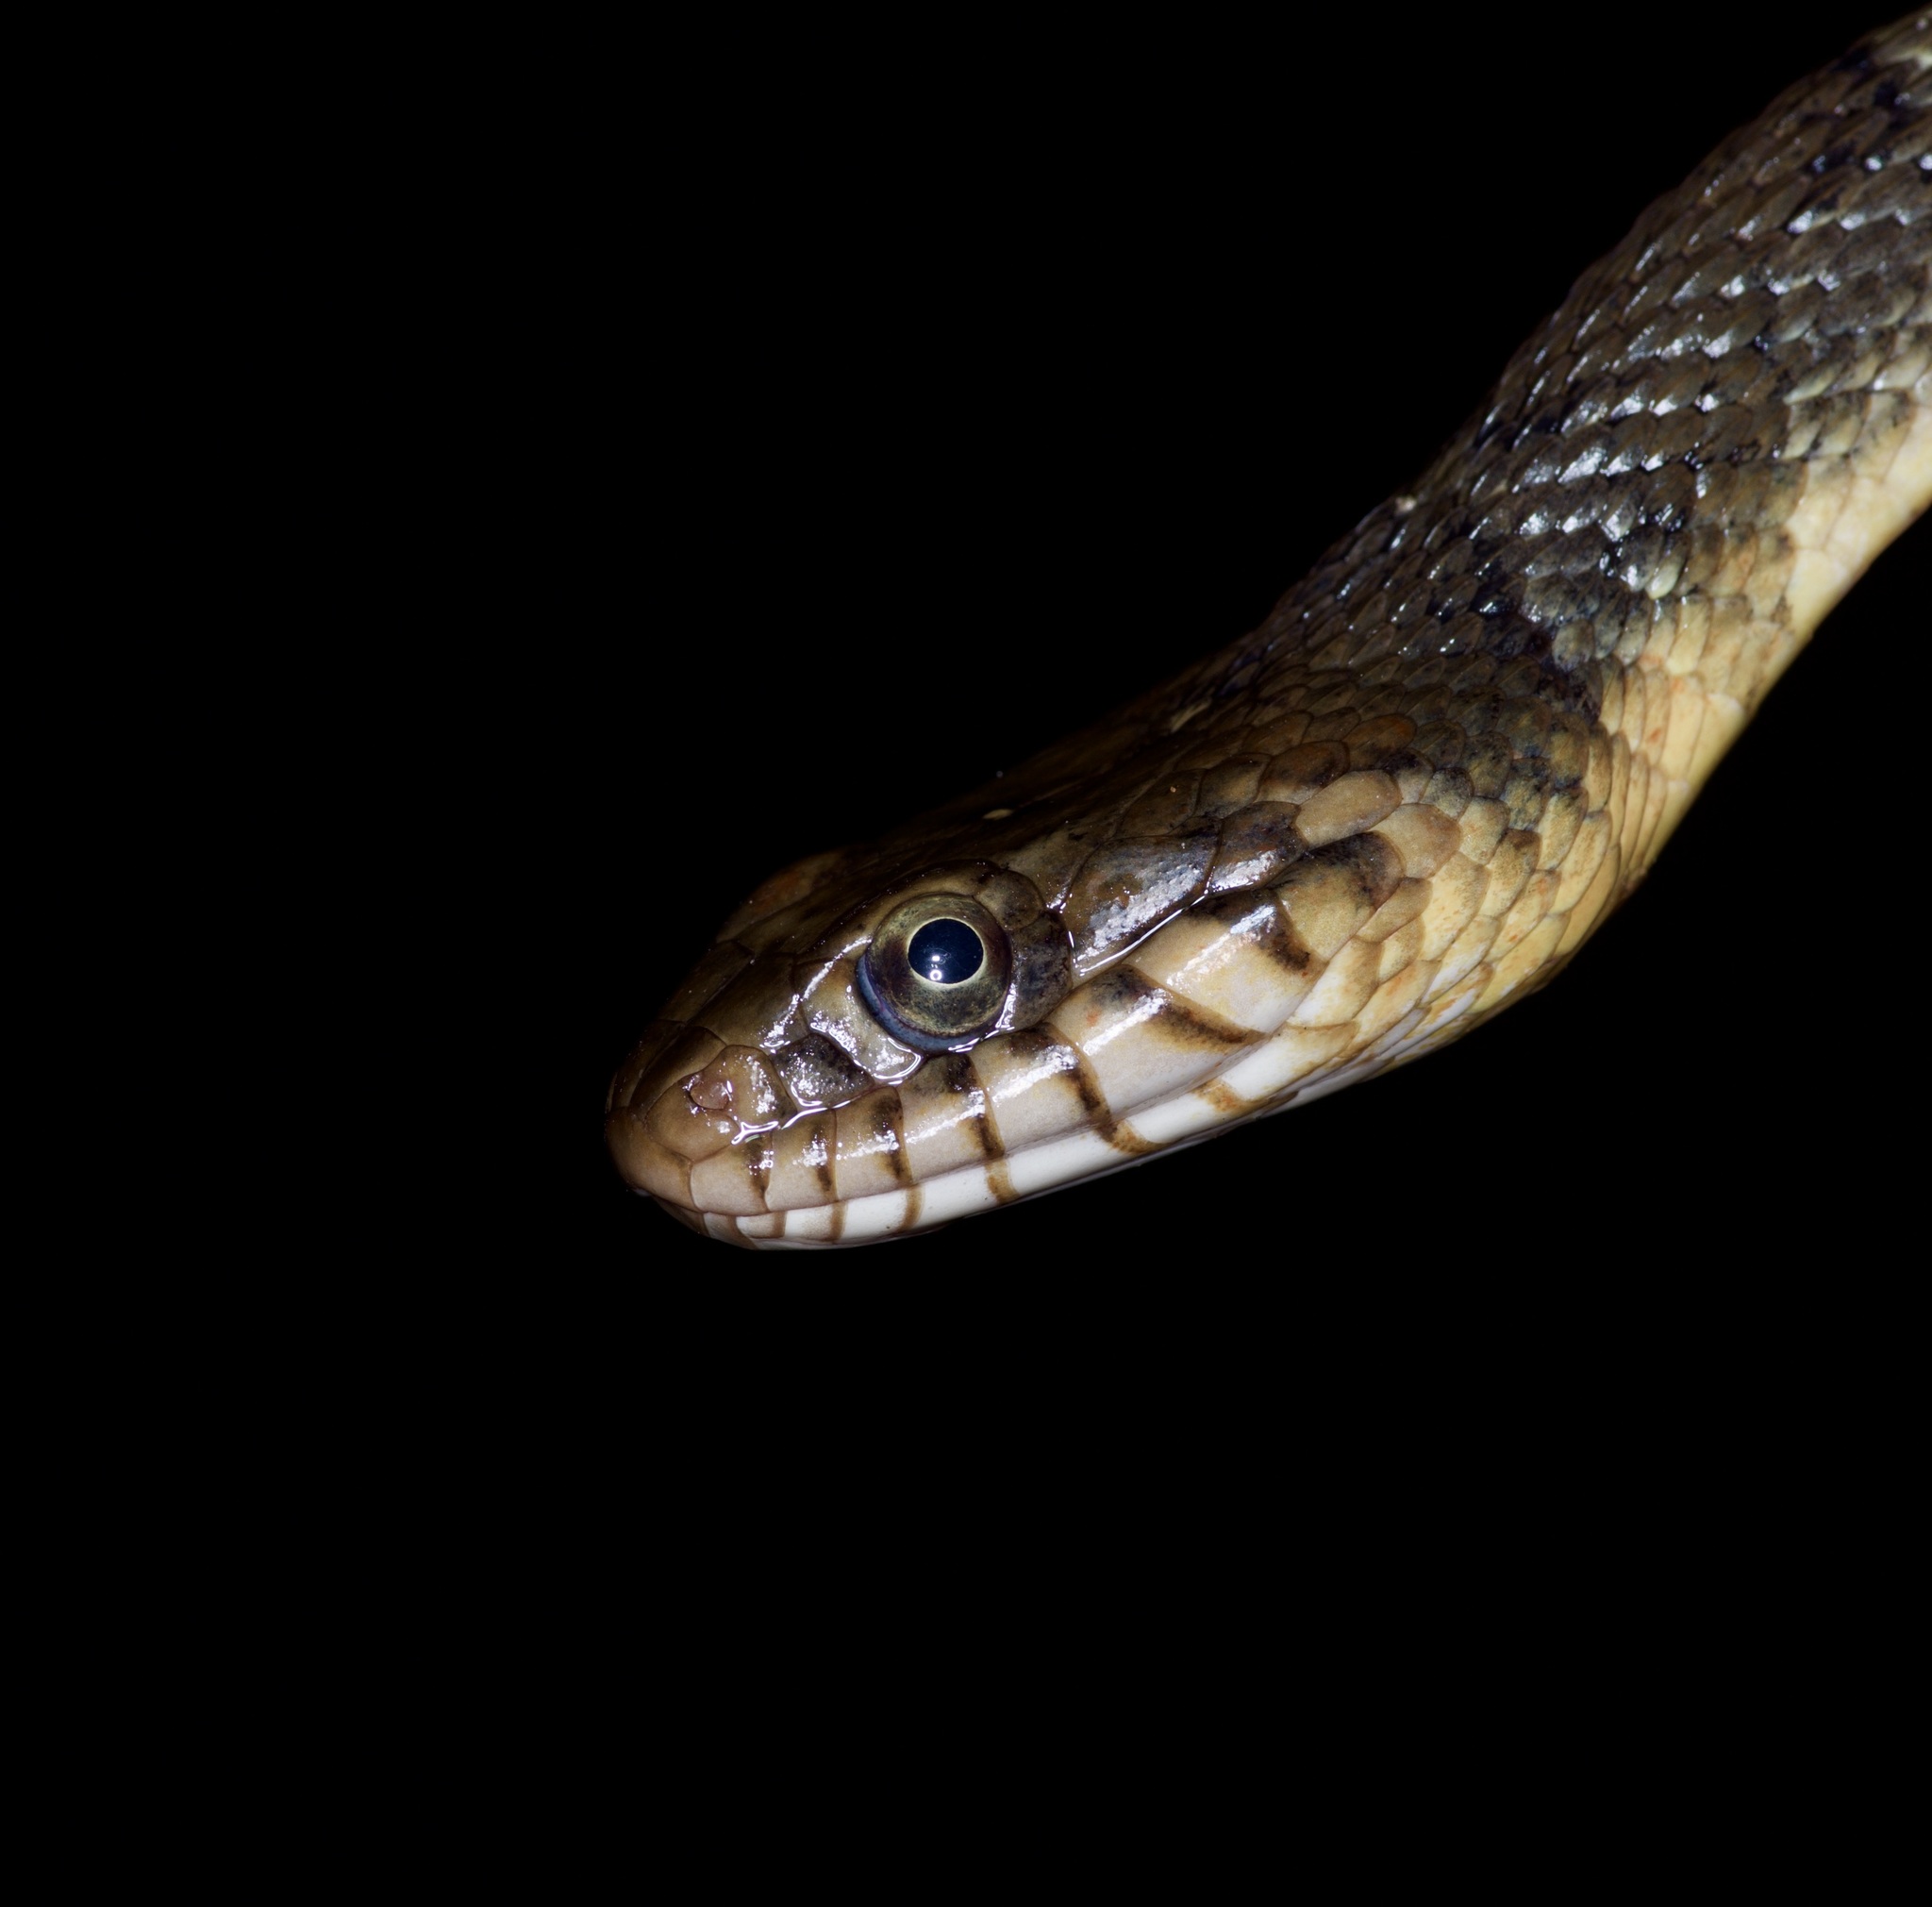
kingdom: Animalia
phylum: Chordata
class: Squamata
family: Colubridae
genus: Nerodia
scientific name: Nerodia erythrogaster
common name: Plainbelly water snake
